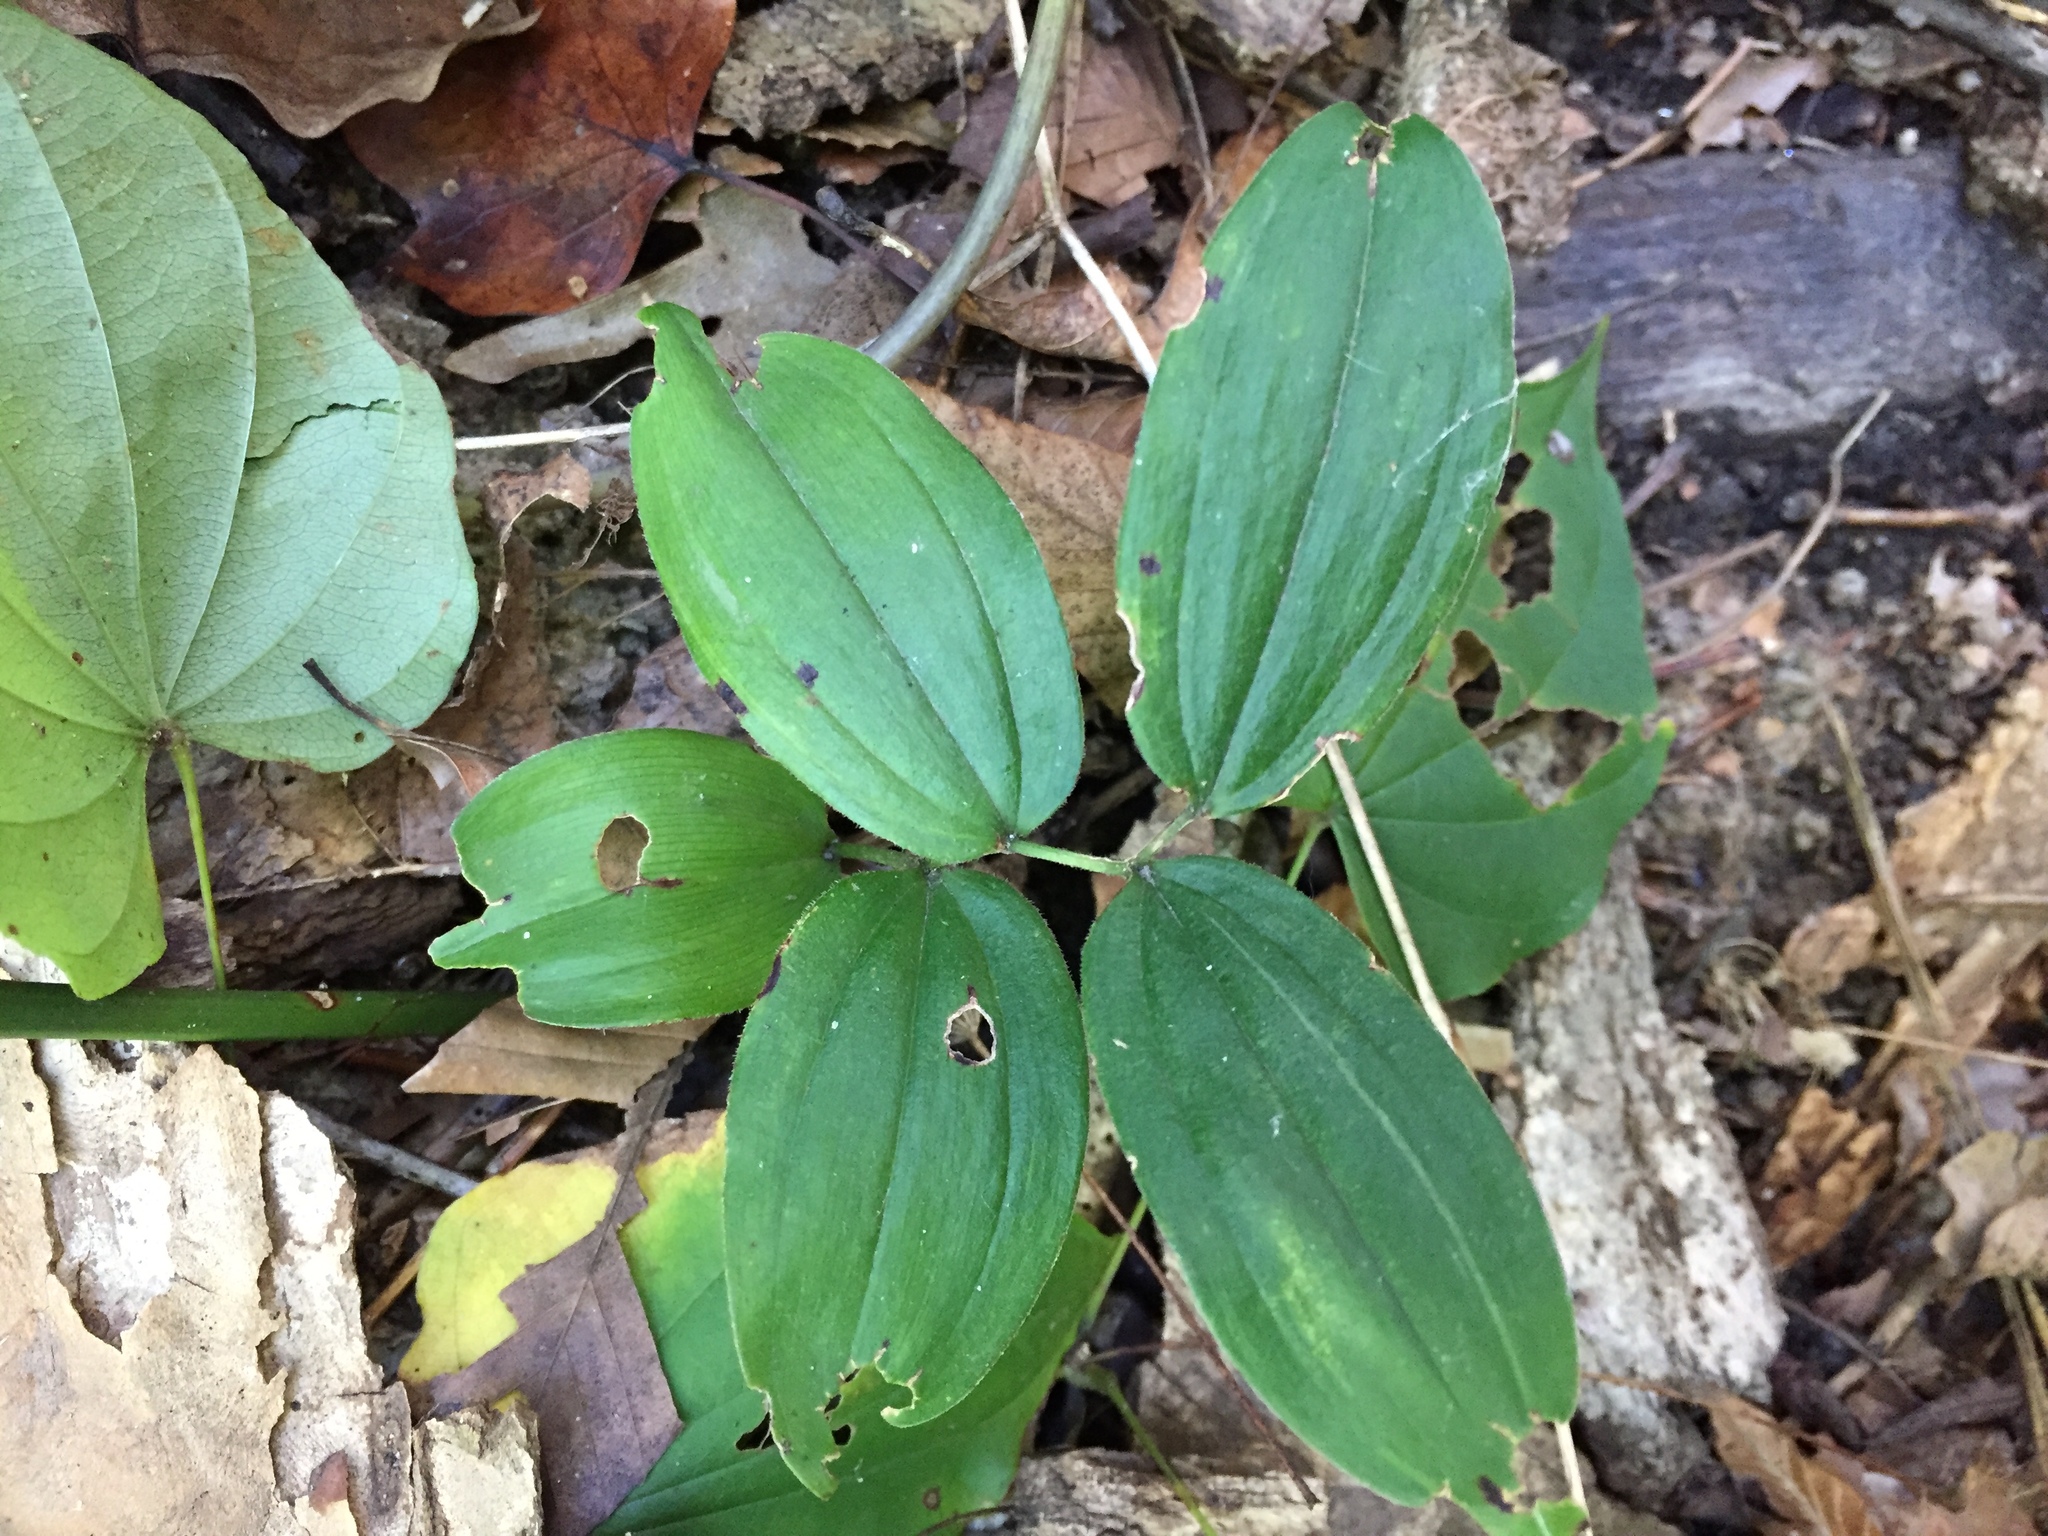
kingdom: Plantae
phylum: Tracheophyta
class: Liliopsida
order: Asparagales
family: Asparagaceae
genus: Maianthemum
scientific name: Maianthemum racemosum
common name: False spikenard
